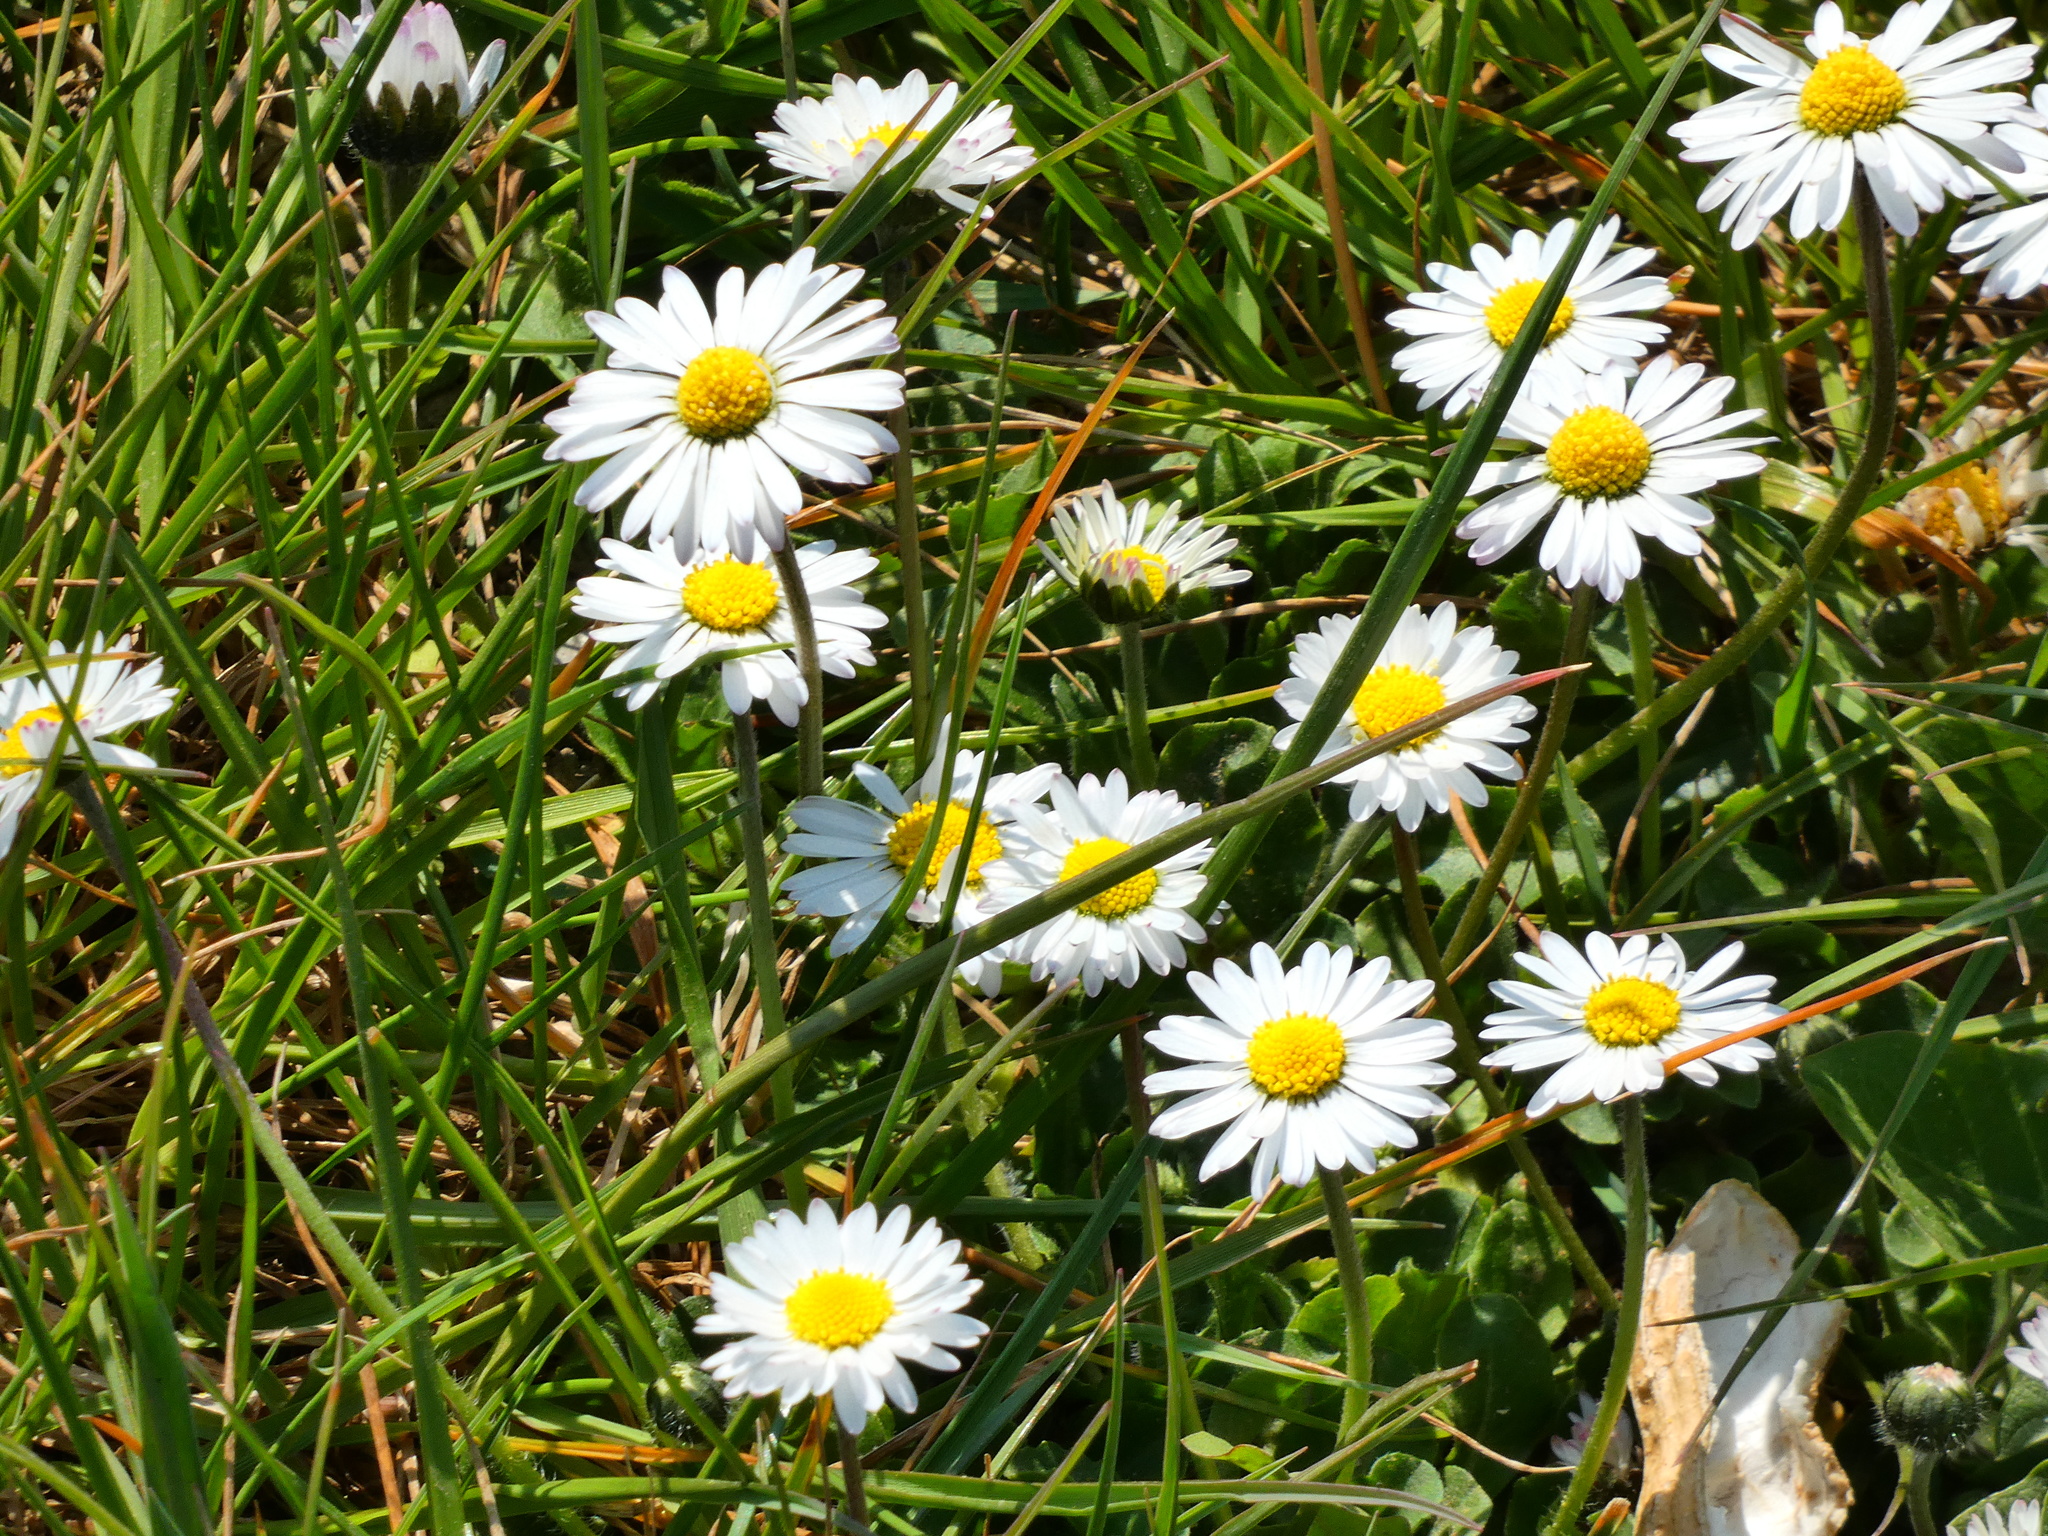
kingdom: Plantae
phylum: Tracheophyta
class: Magnoliopsida
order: Asterales
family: Asteraceae
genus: Bellis
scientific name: Bellis perennis
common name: Lawndaisy
